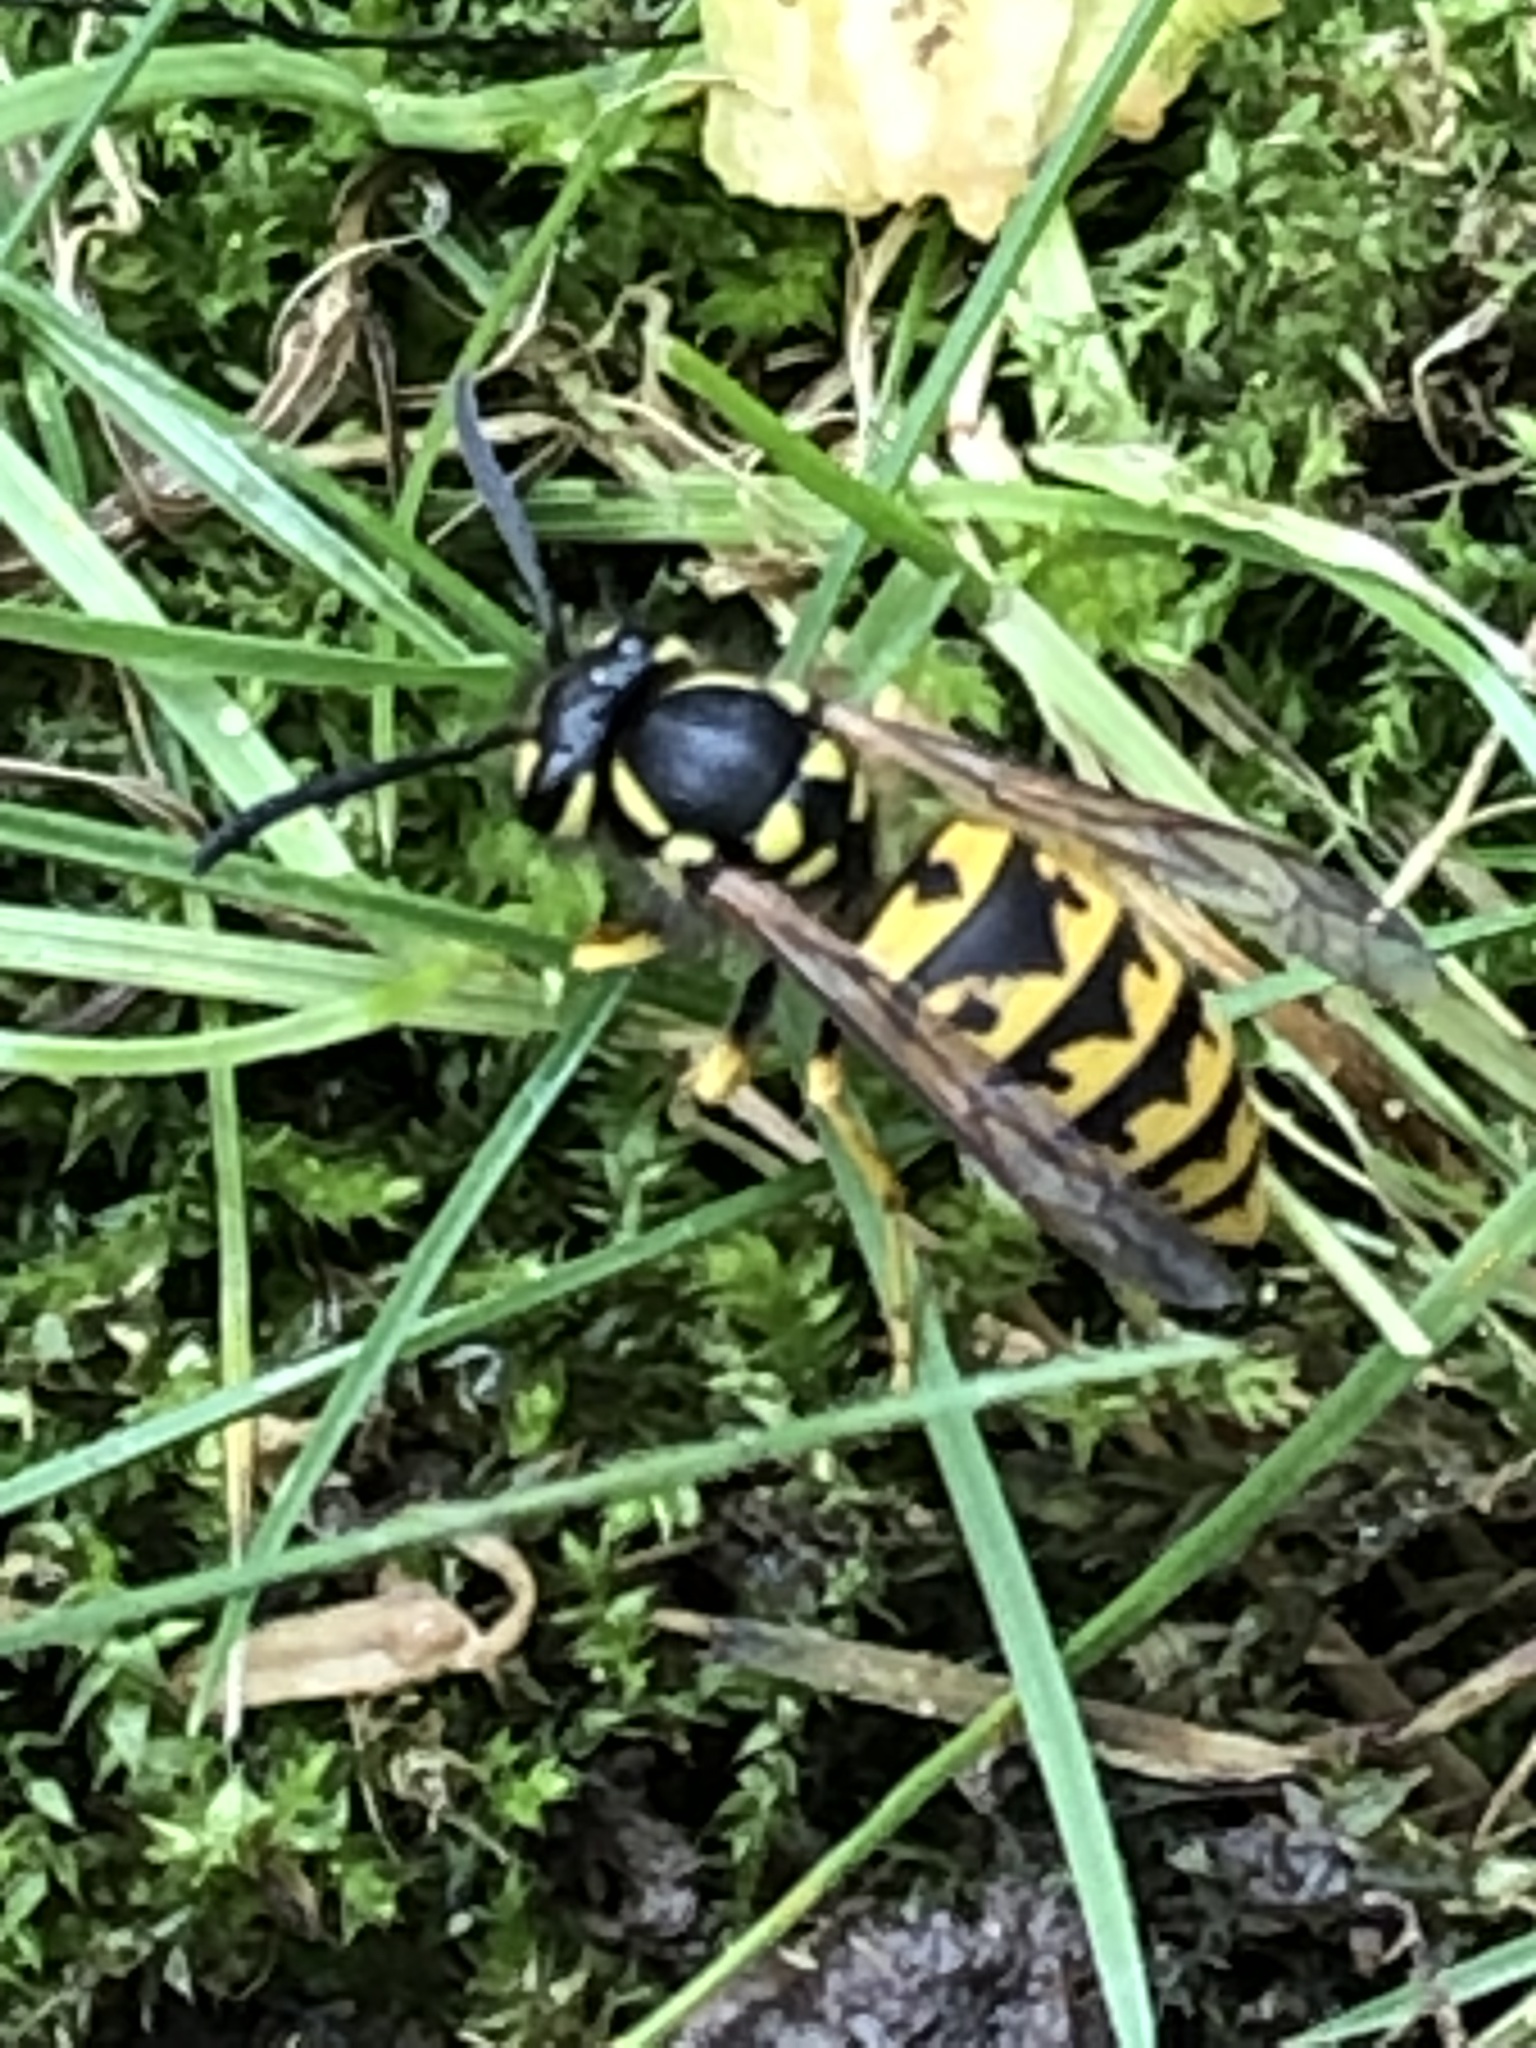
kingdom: Animalia
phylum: Arthropoda
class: Insecta
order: Hymenoptera
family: Vespidae
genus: Vespula
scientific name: Vespula germanica
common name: German wasp
